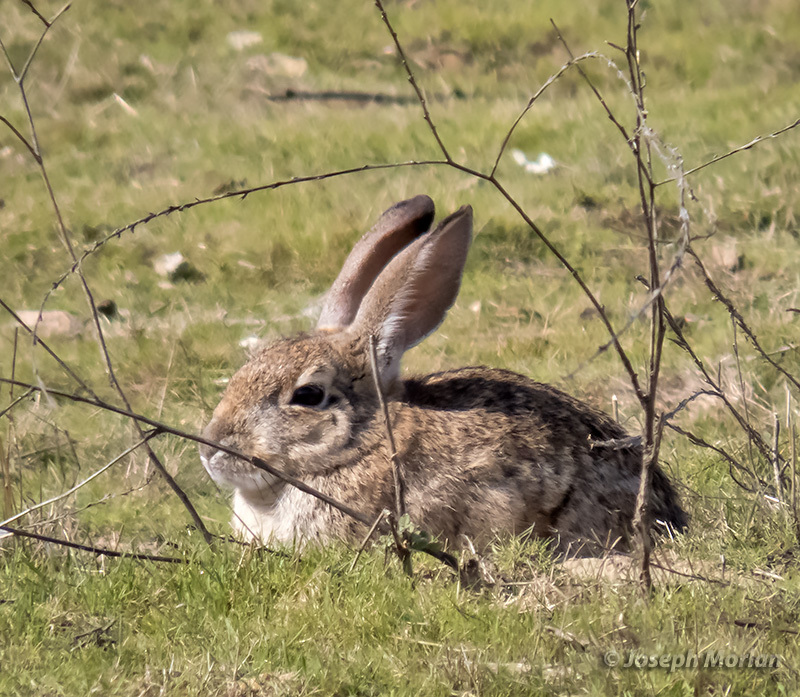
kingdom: Animalia
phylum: Chordata
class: Mammalia
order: Lagomorpha
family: Leporidae
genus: Sylvilagus
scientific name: Sylvilagus audubonii
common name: Desert cottontail
